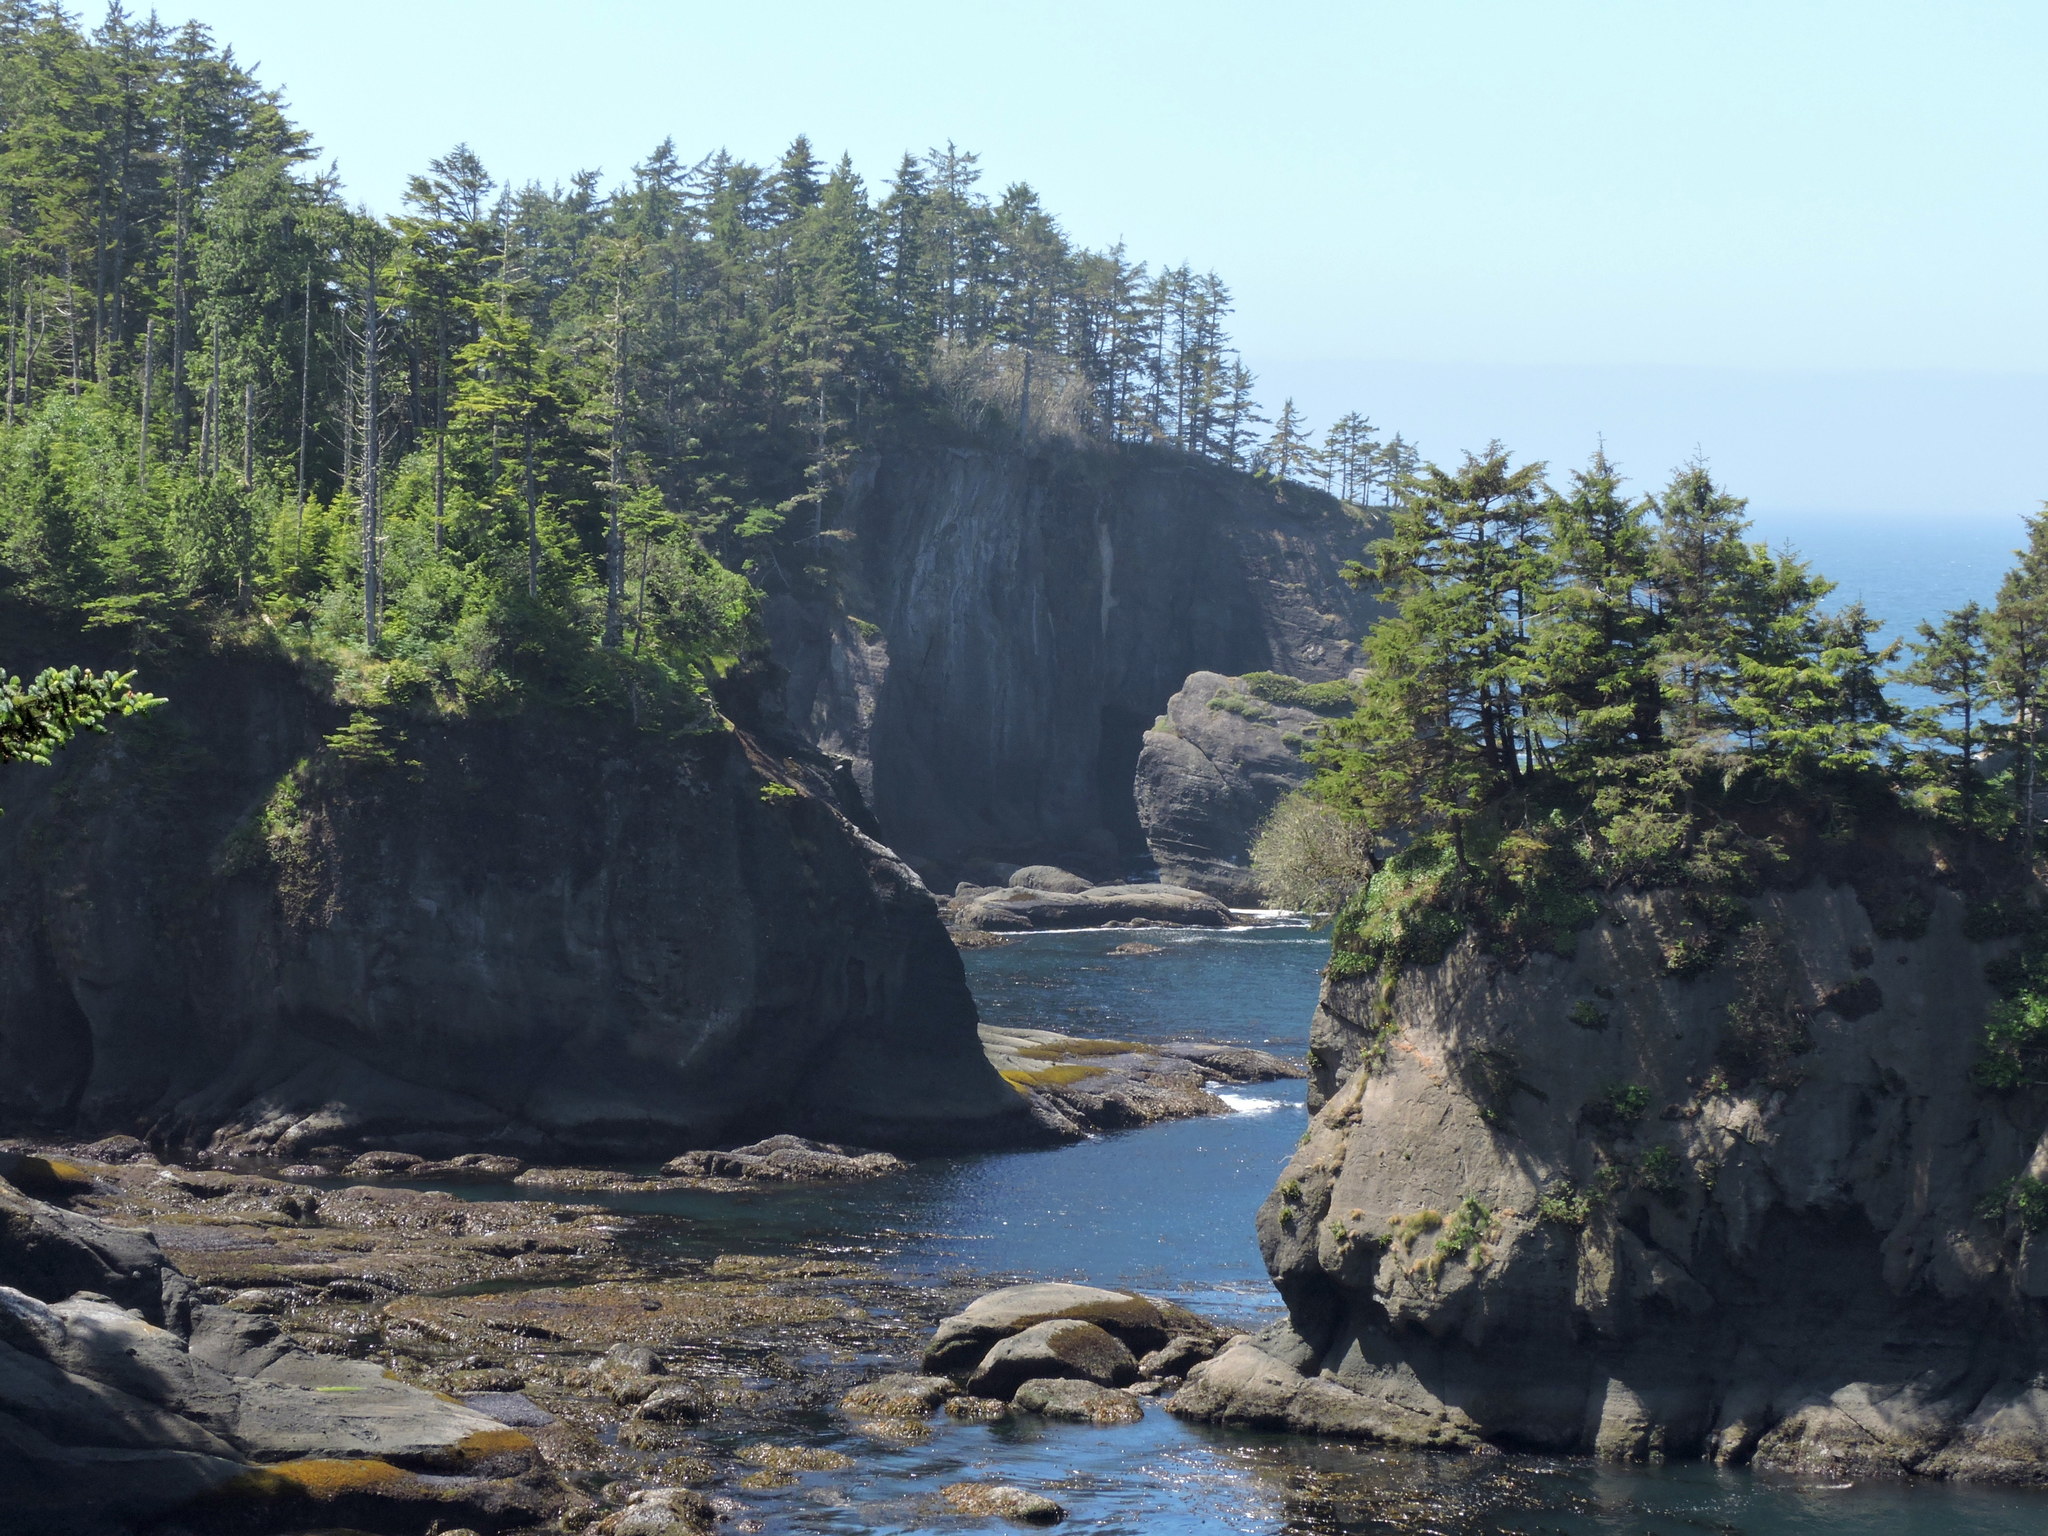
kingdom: Plantae
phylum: Tracheophyta
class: Pinopsida
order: Pinales
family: Pinaceae
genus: Picea
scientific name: Picea sitchensis
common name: Sitka spruce
